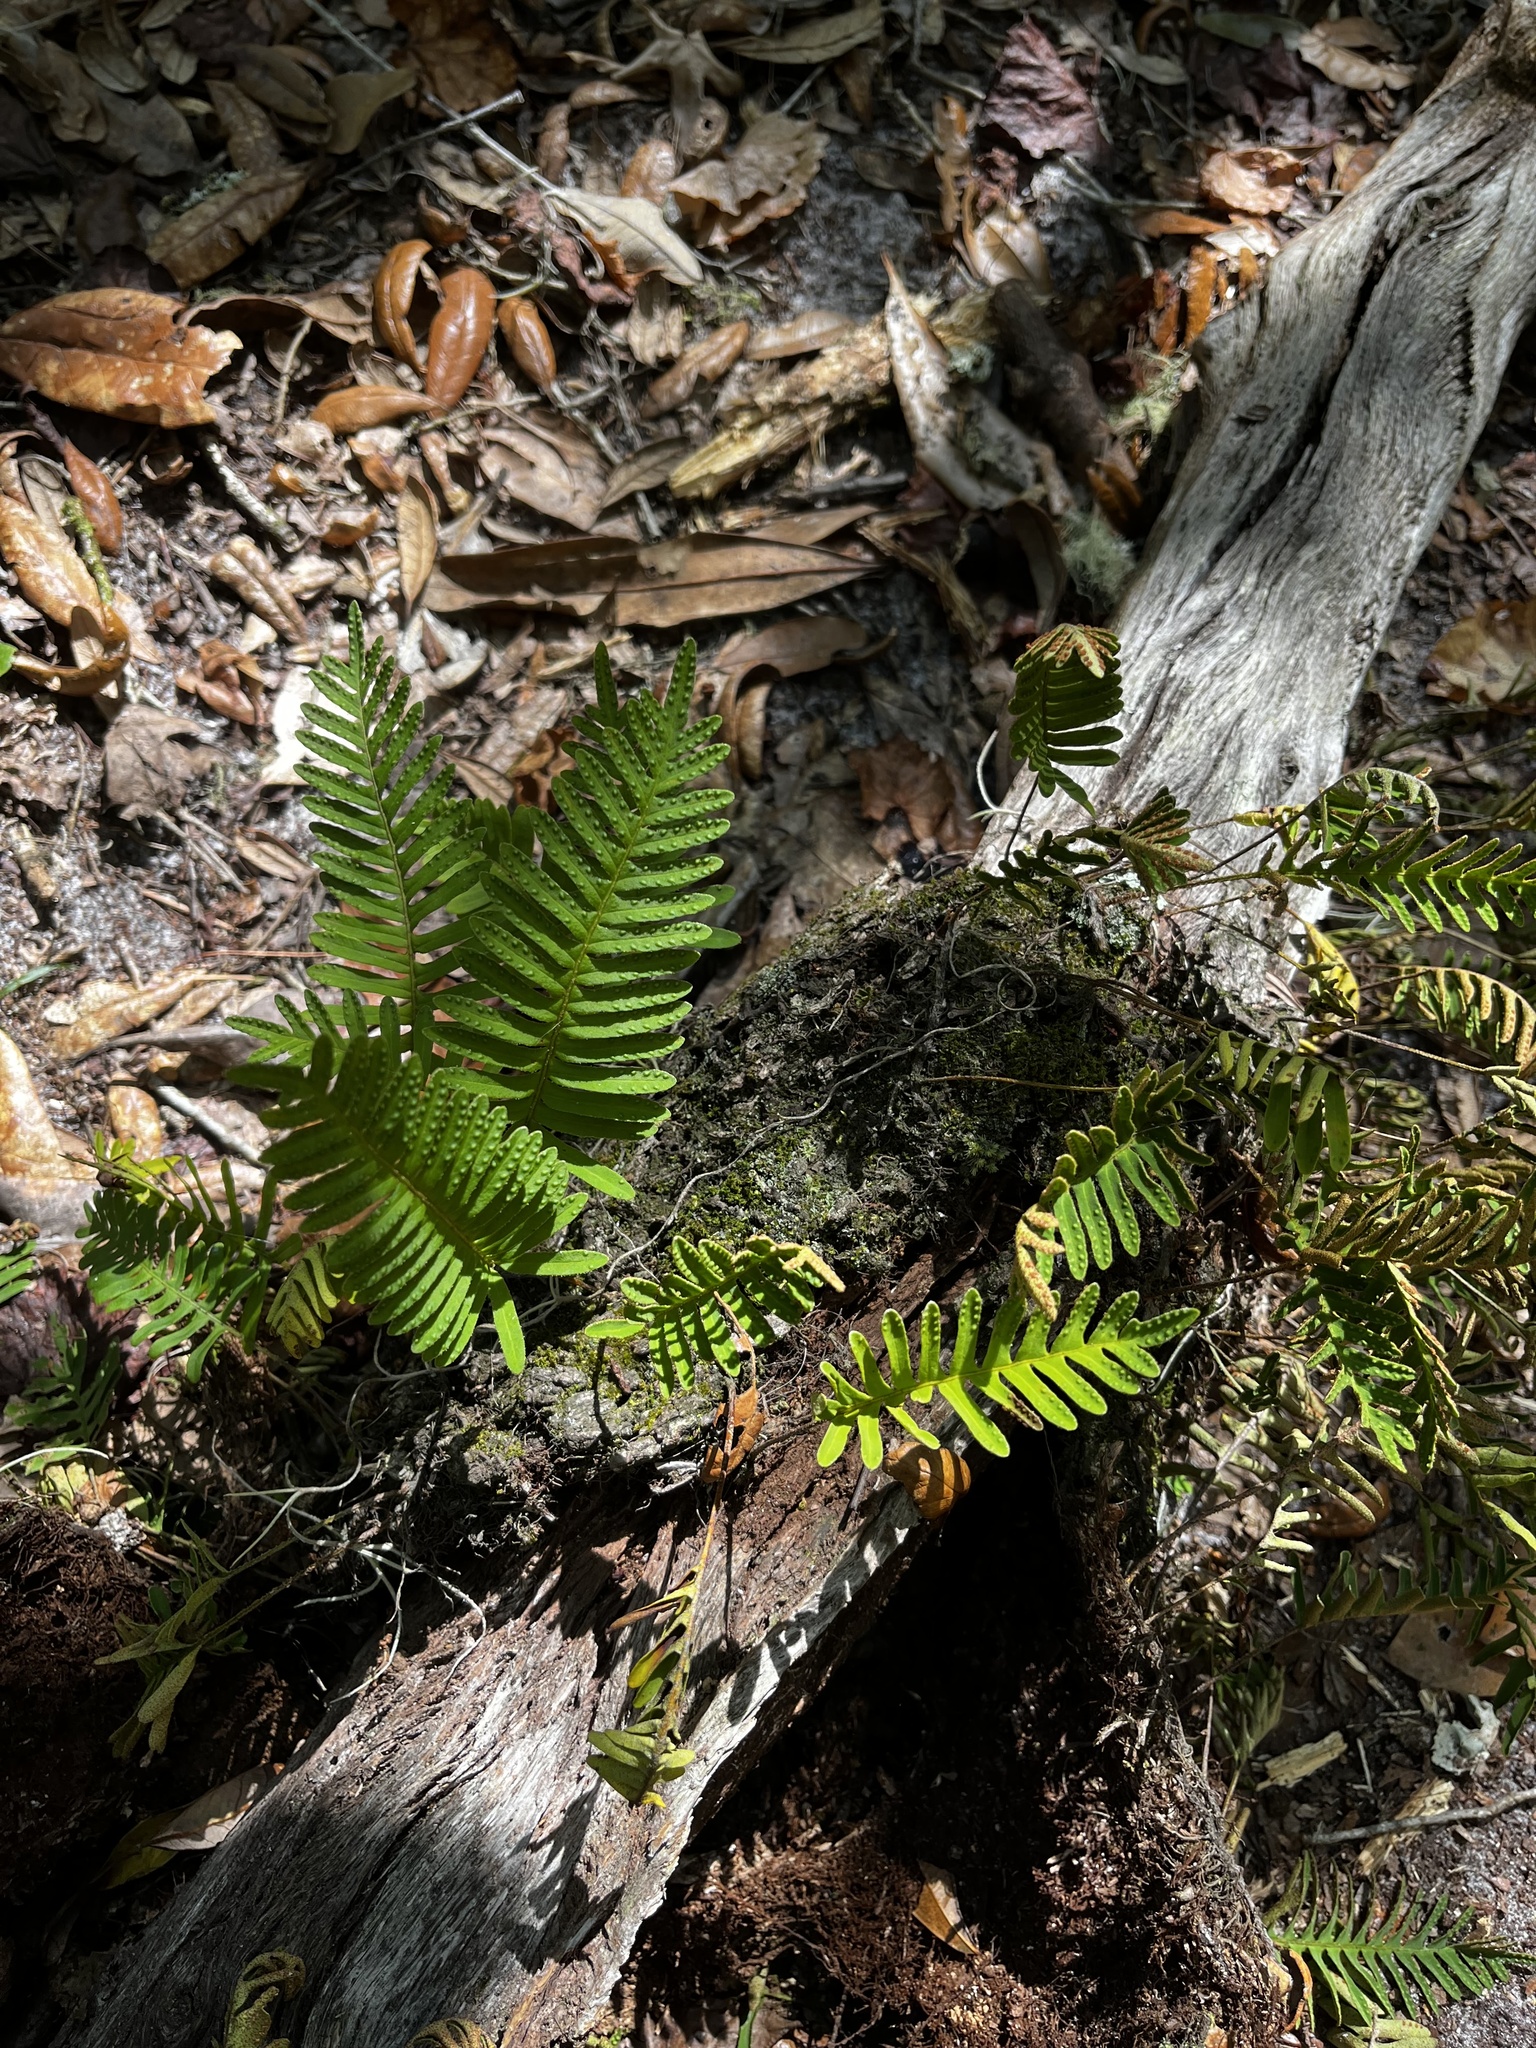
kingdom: Plantae
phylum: Tracheophyta
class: Polypodiopsida
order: Polypodiales
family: Polypodiaceae
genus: Pleopeltis
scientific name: Pleopeltis michauxiana
